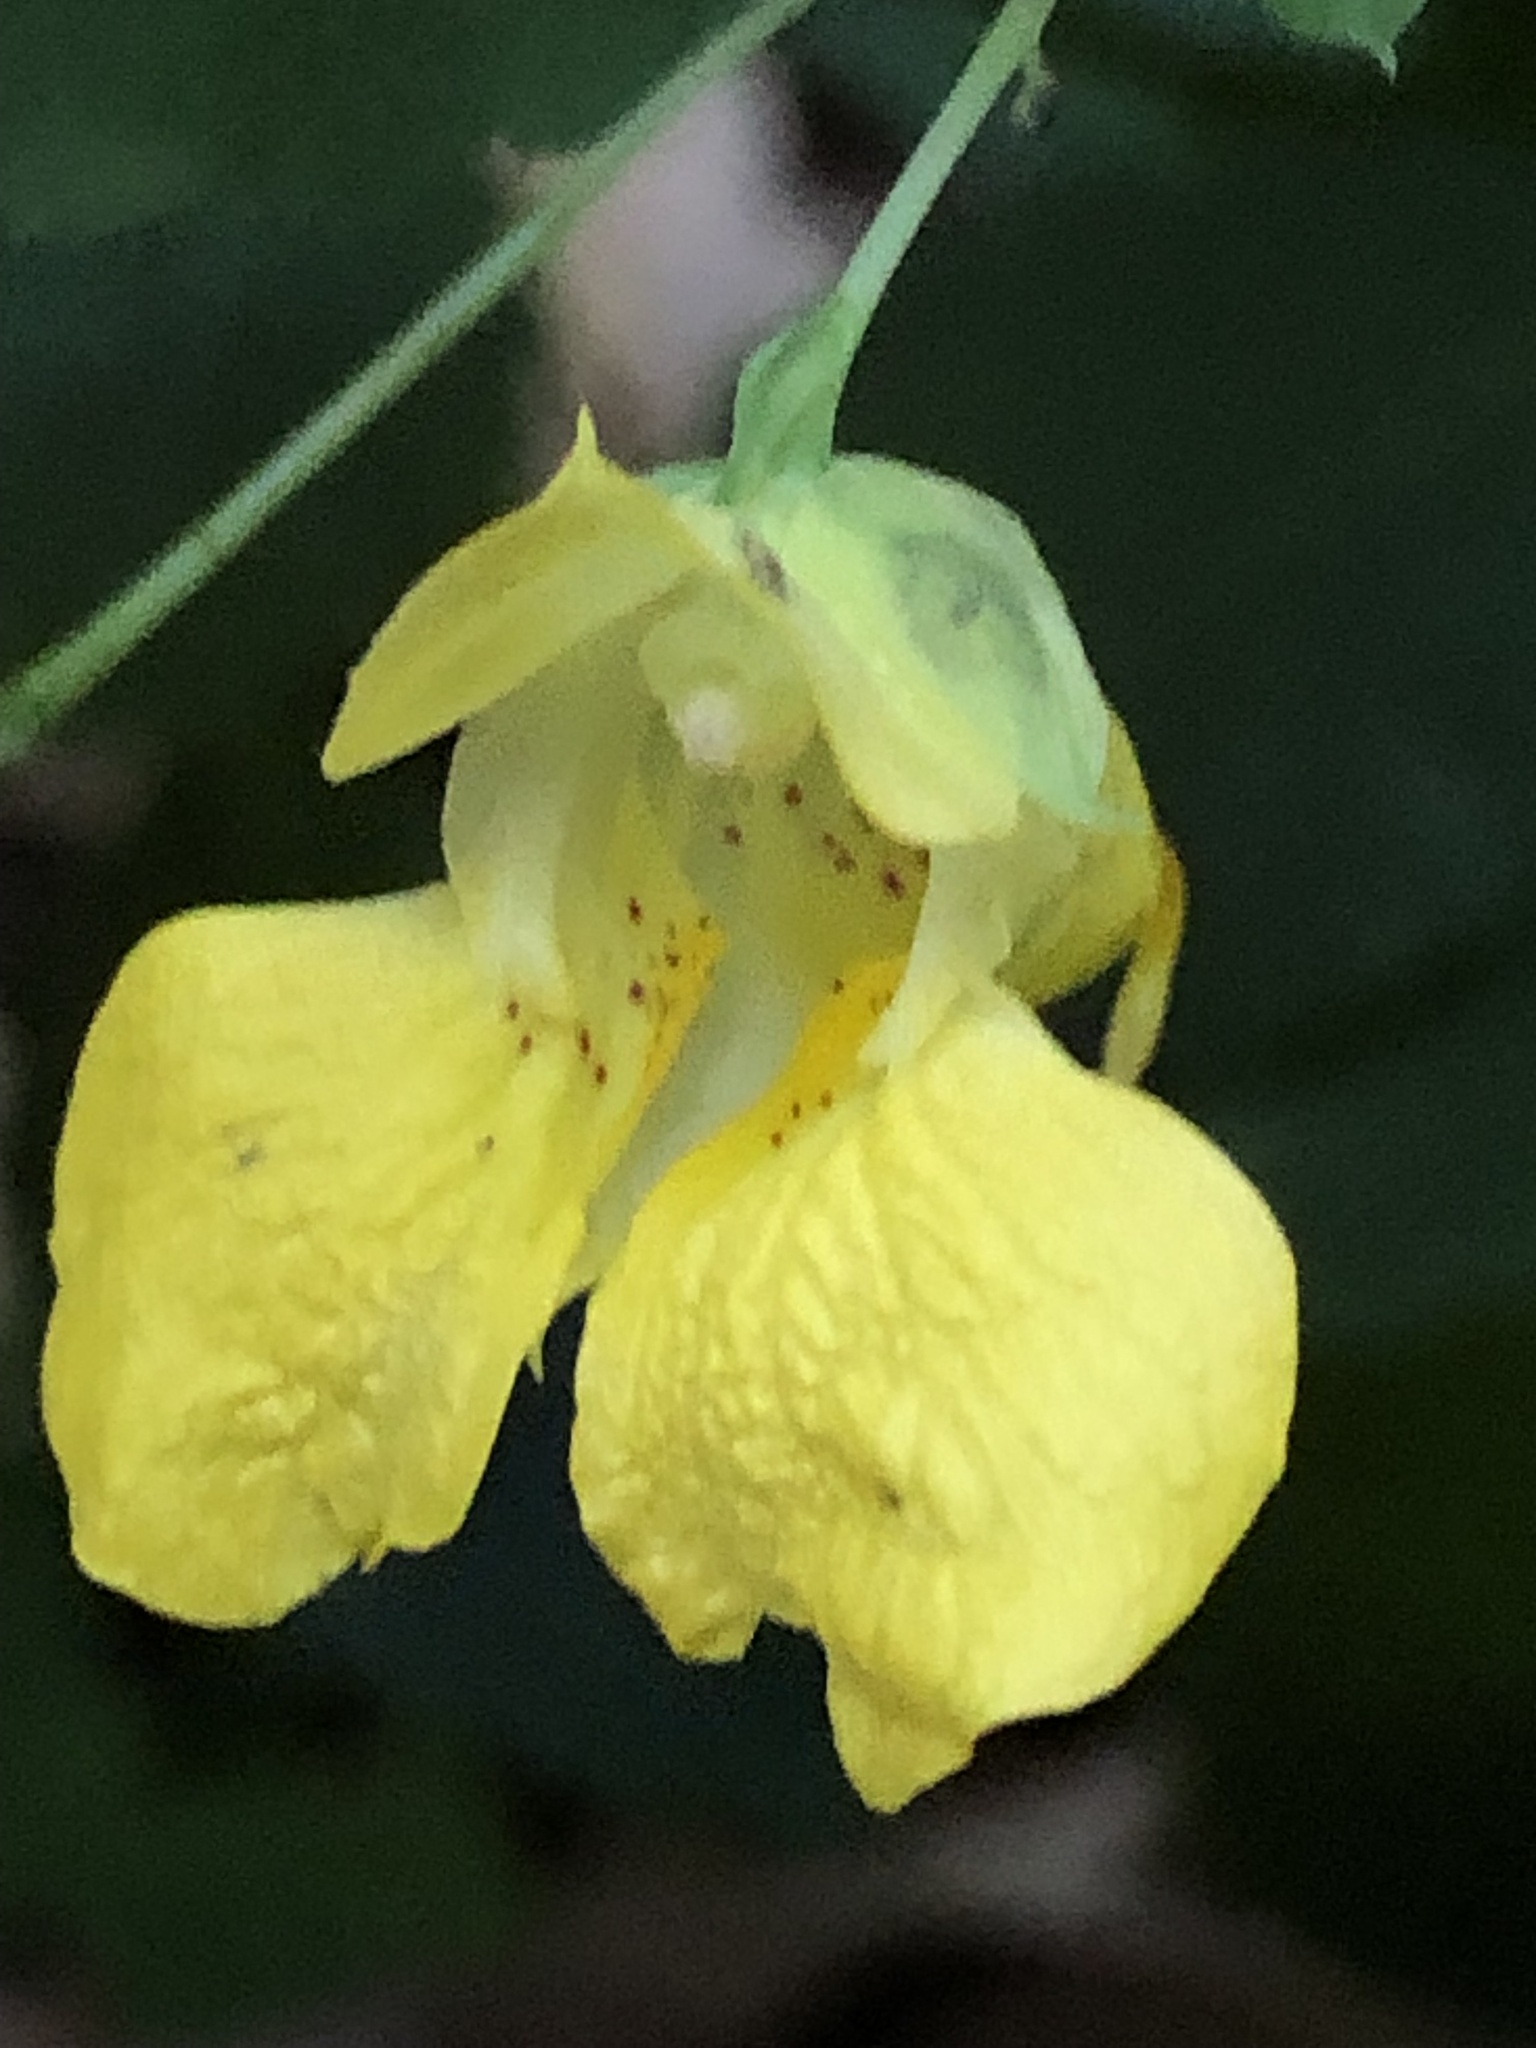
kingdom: Plantae
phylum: Tracheophyta
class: Magnoliopsida
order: Ericales
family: Balsaminaceae
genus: Impatiens
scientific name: Impatiens pallida
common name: Pale snapweed
